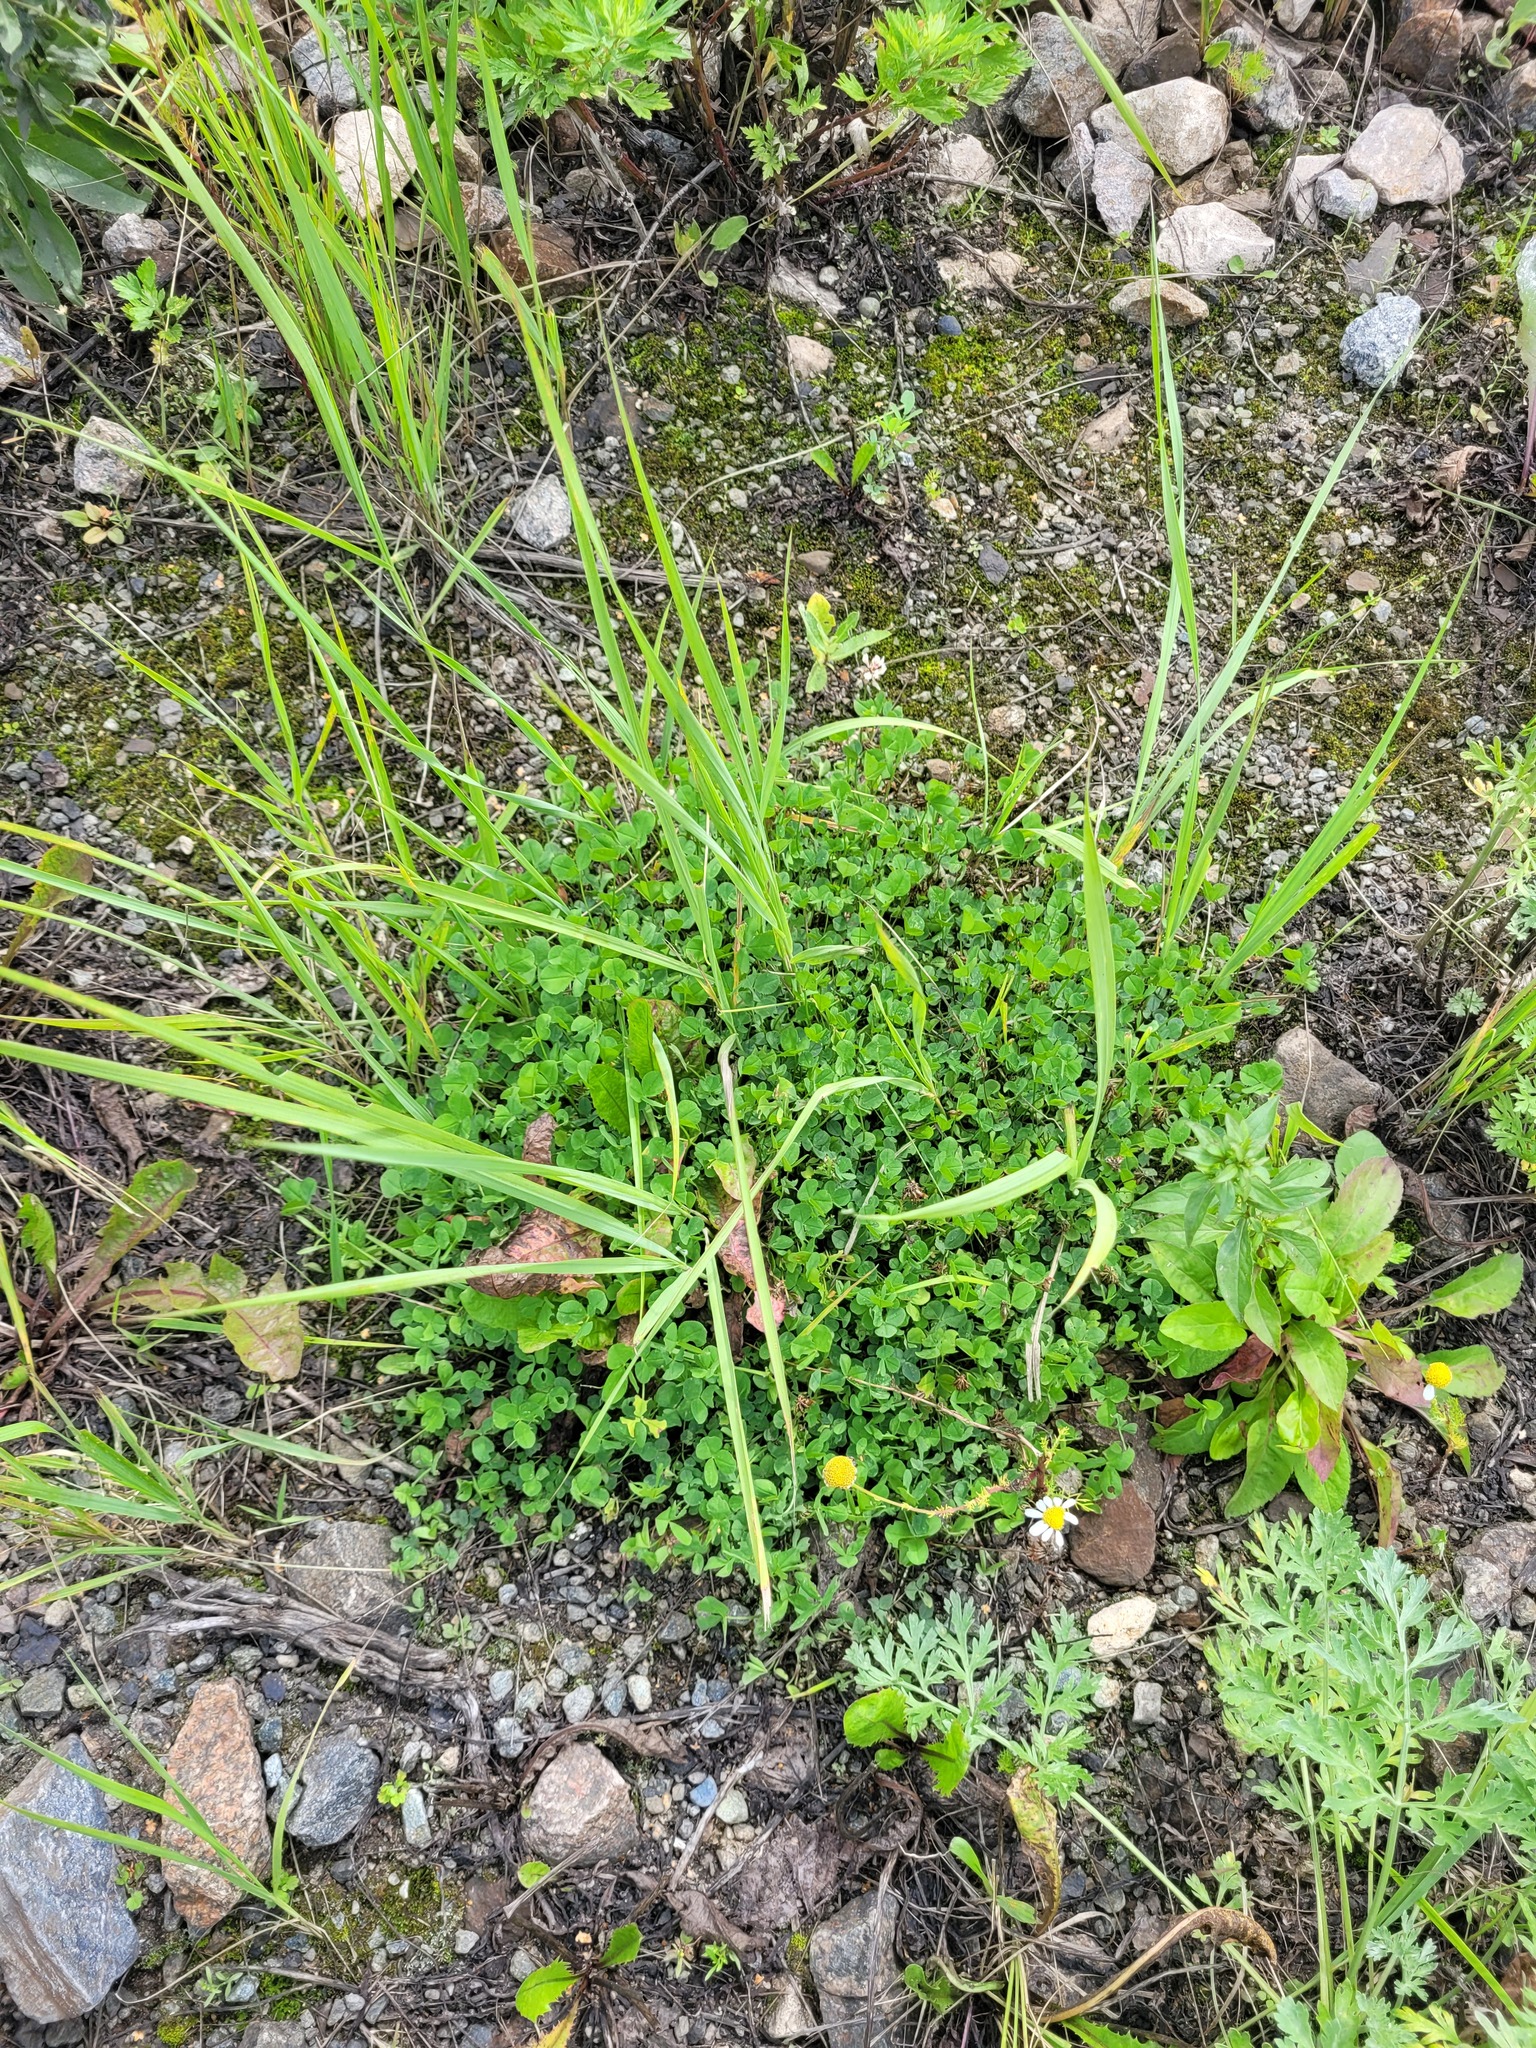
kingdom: Plantae
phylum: Tracheophyta
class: Magnoliopsida
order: Fabales
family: Fabaceae
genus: Trifolium
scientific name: Trifolium repens
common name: White clover
